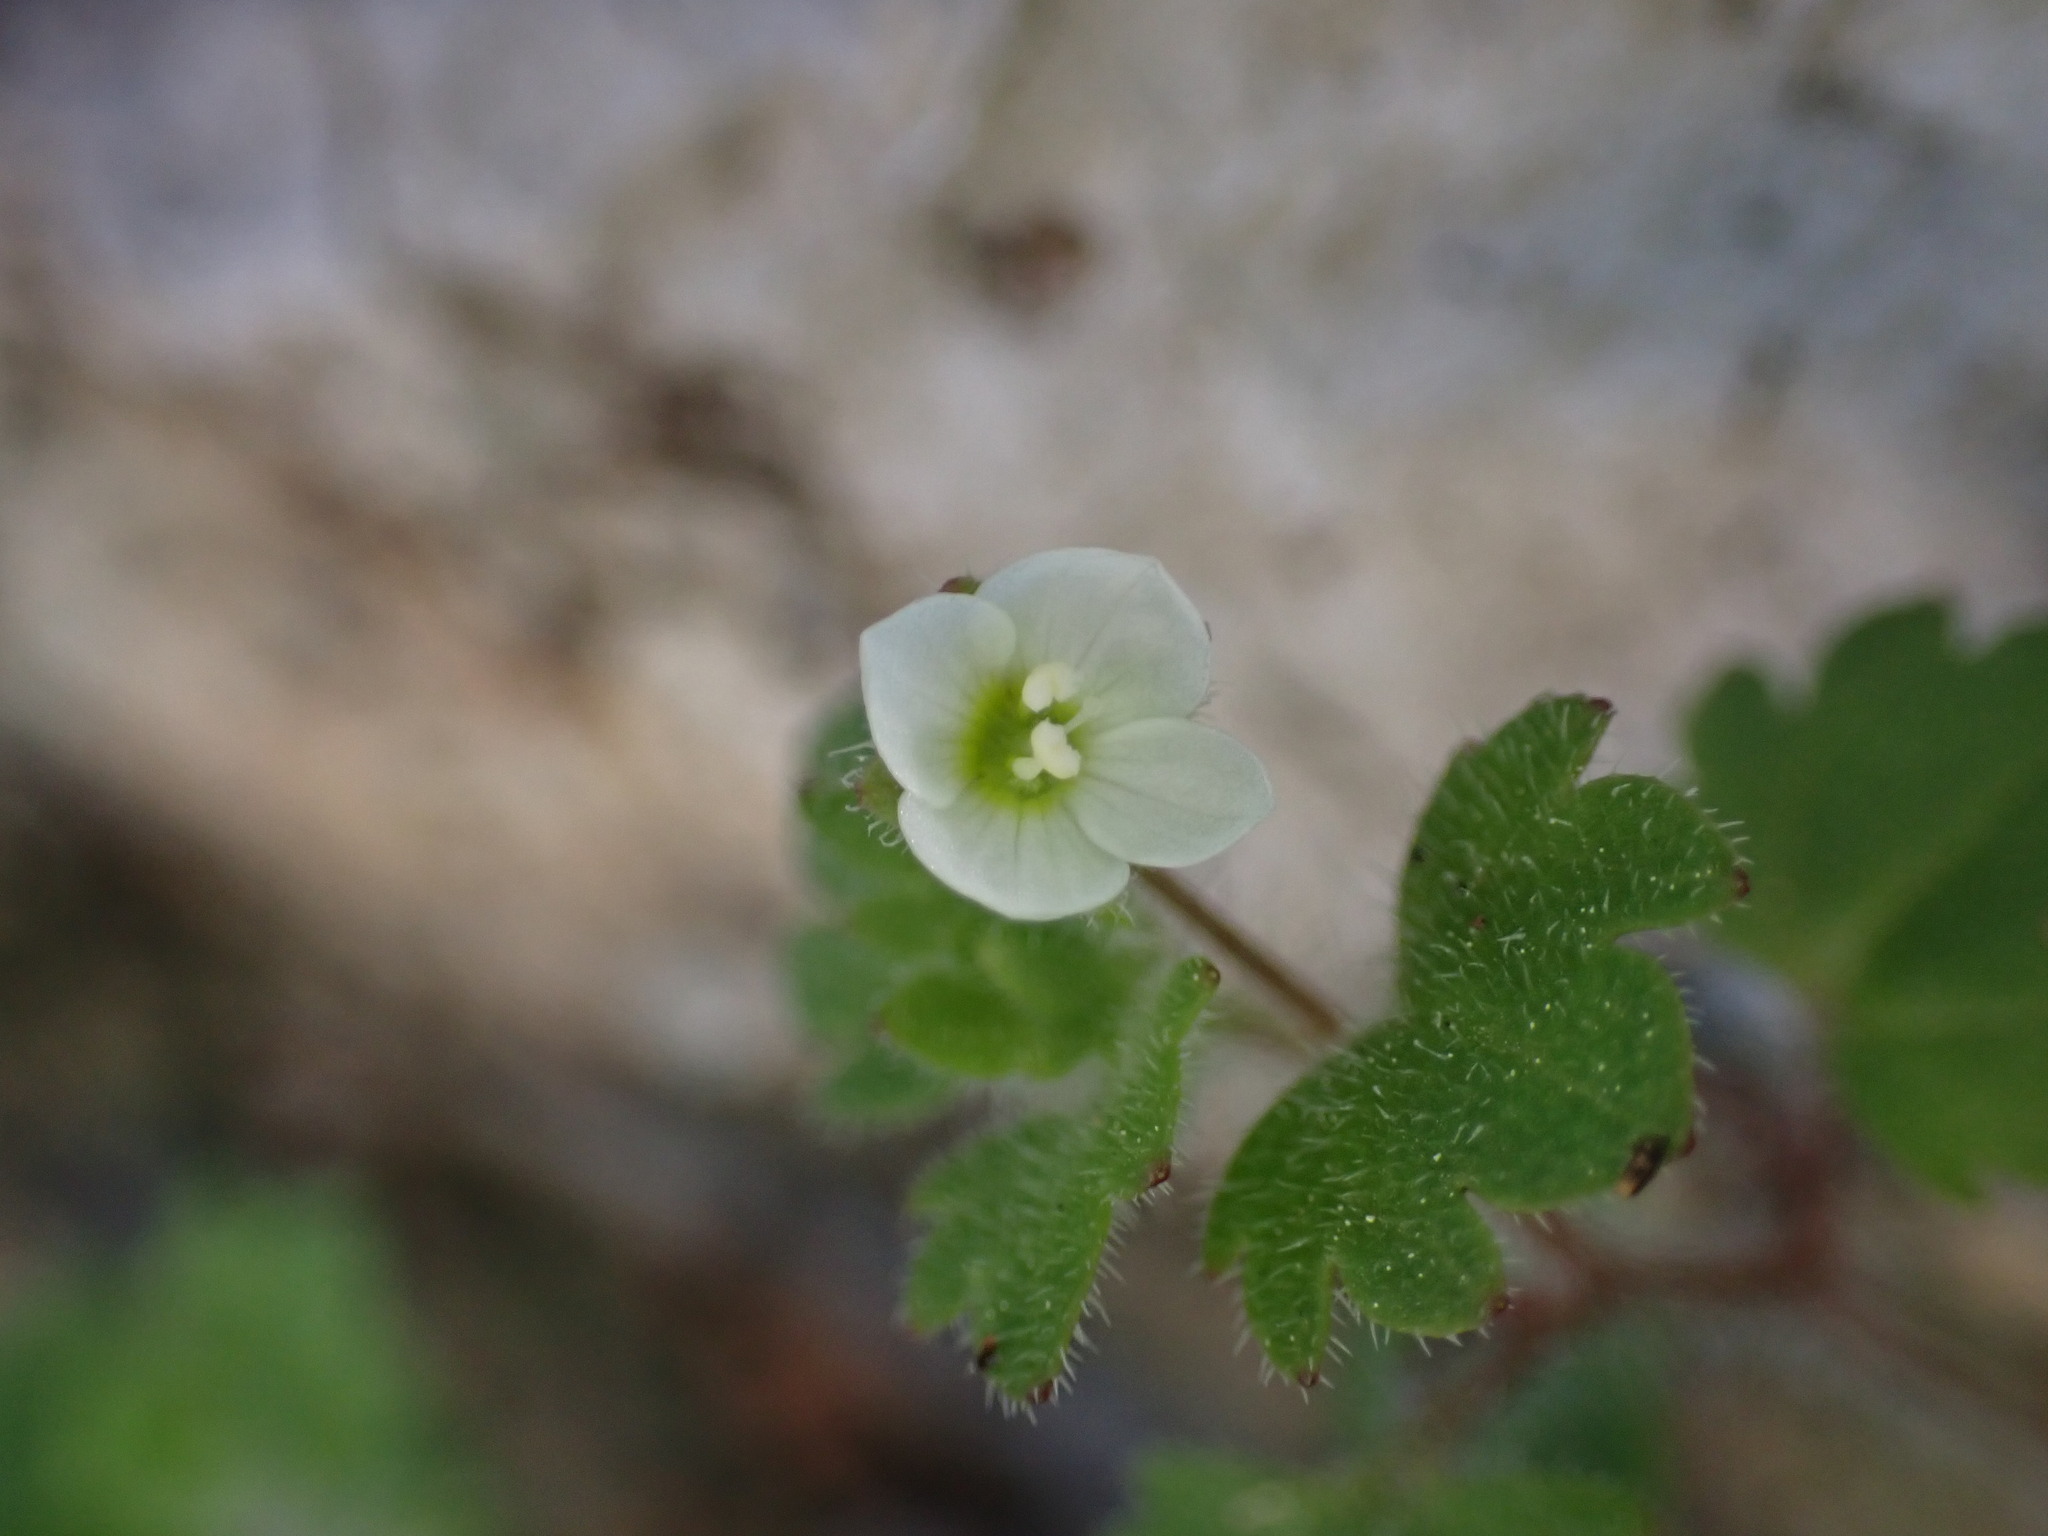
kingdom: Plantae
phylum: Tracheophyta
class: Magnoliopsida
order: Lamiales
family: Plantaginaceae
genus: Veronica
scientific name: Veronica cymbalaria
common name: Pale speedwell
